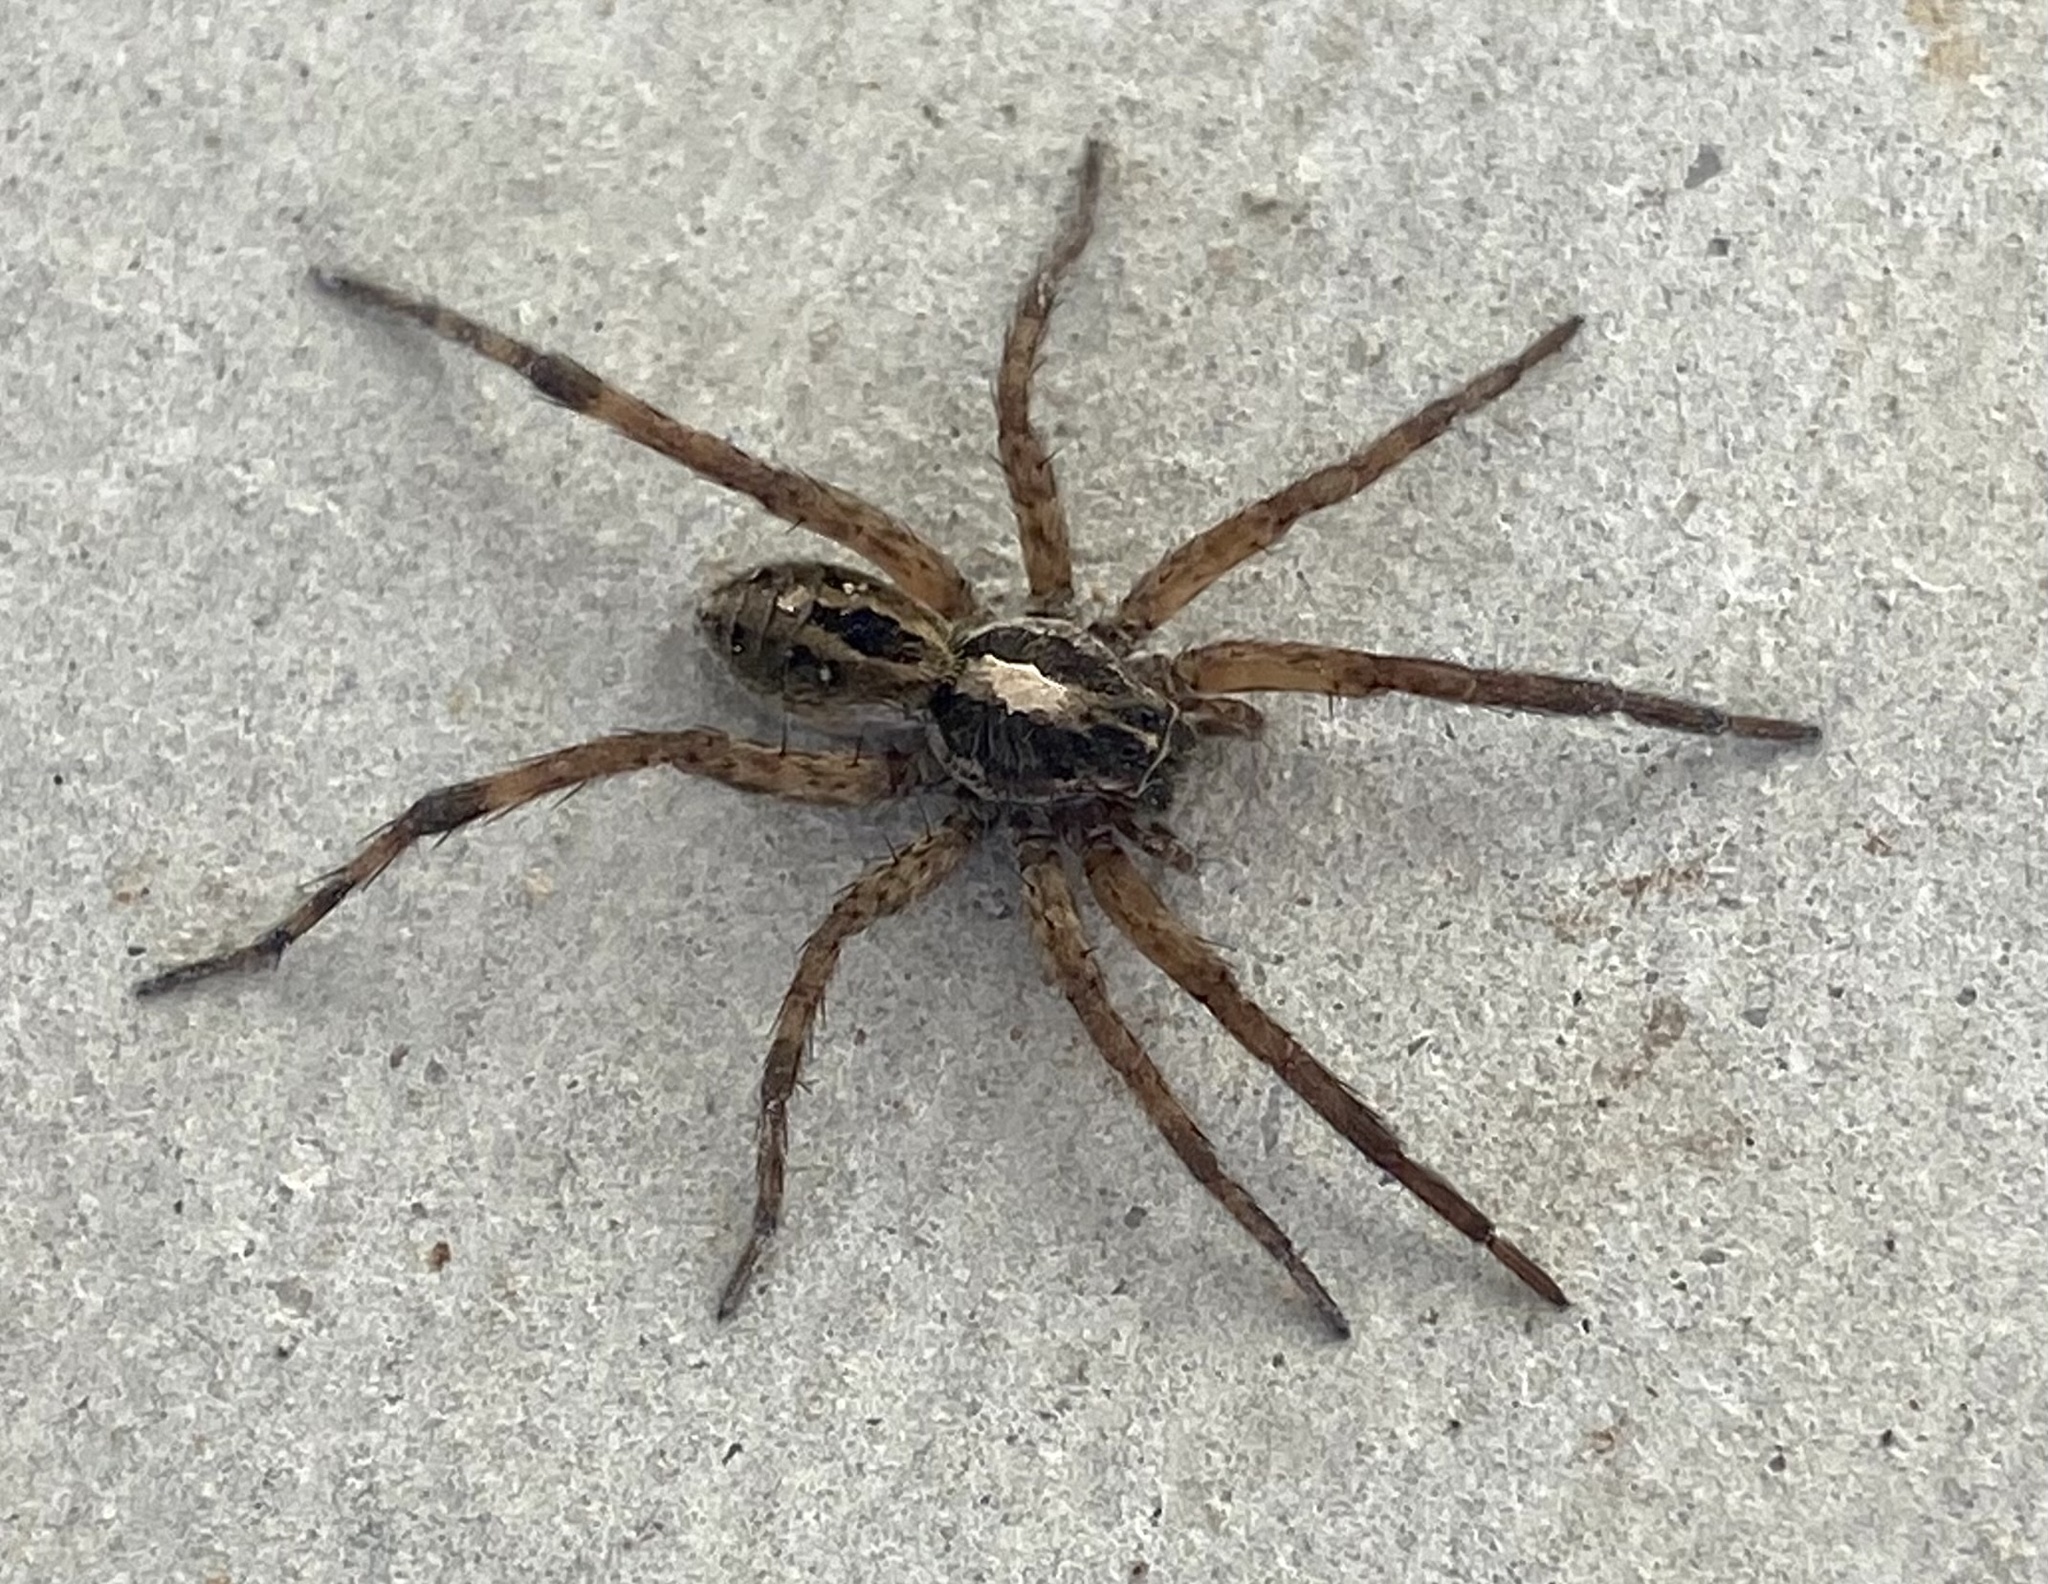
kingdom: Animalia
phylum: Arthropoda
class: Arachnida
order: Araneae
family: Lycosidae
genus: Schizocosa
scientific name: Schizocosa avida
